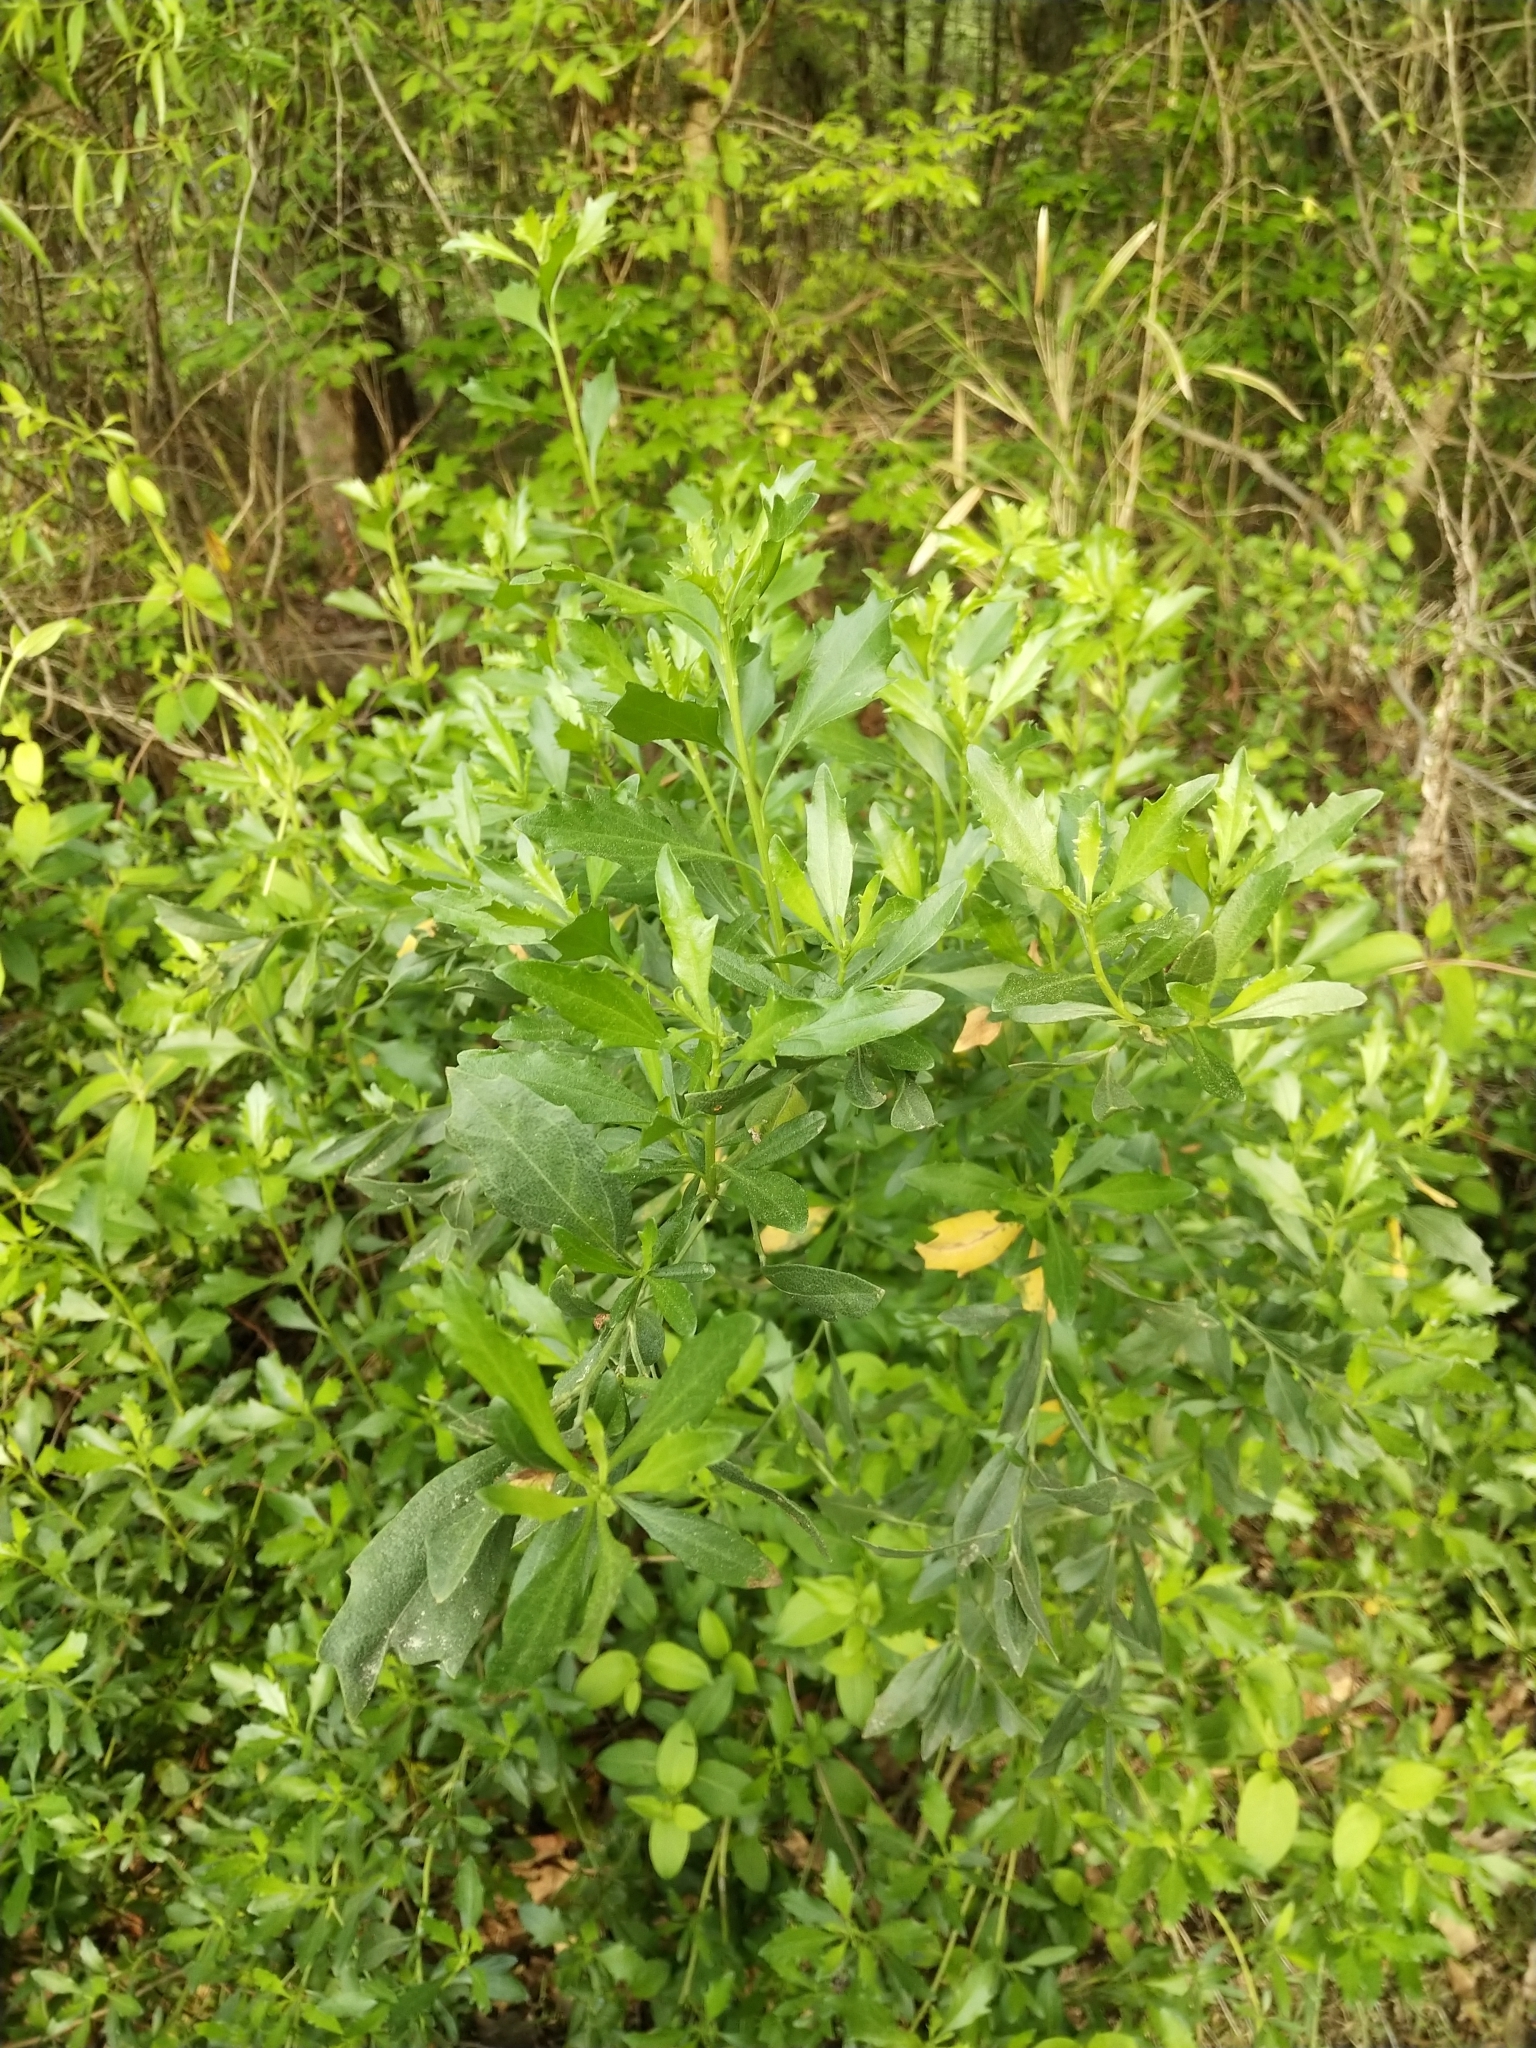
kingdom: Plantae
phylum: Tracheophyta
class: Magnoliopsida
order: Asterales
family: Asteraceae
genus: Baccharis
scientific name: Baccharis halimifolia
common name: Eastern baccharis
